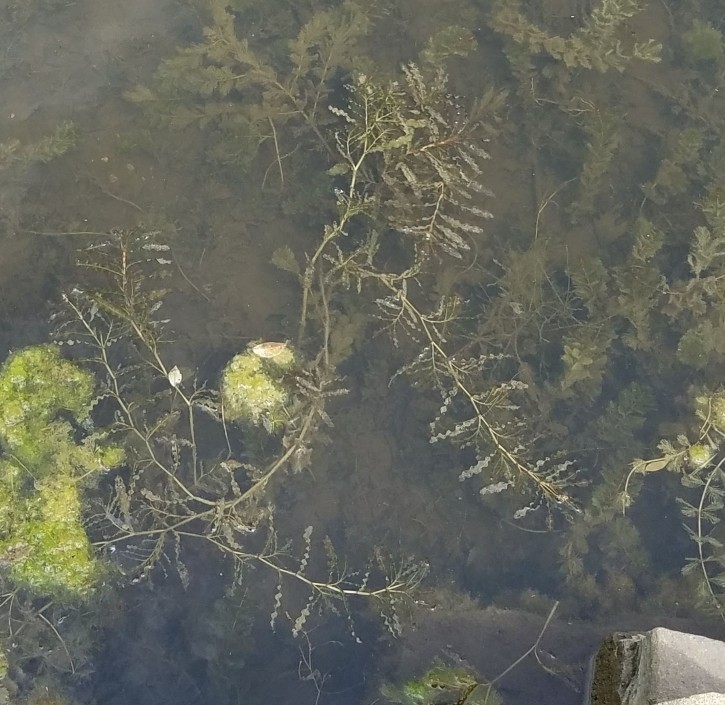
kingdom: Plantae
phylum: Tracheophyta
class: Liliopsida
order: Alismatales
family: Potamogetonaceae
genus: Potamogeton
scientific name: Potamogeton crispus
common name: Curled pondweed
